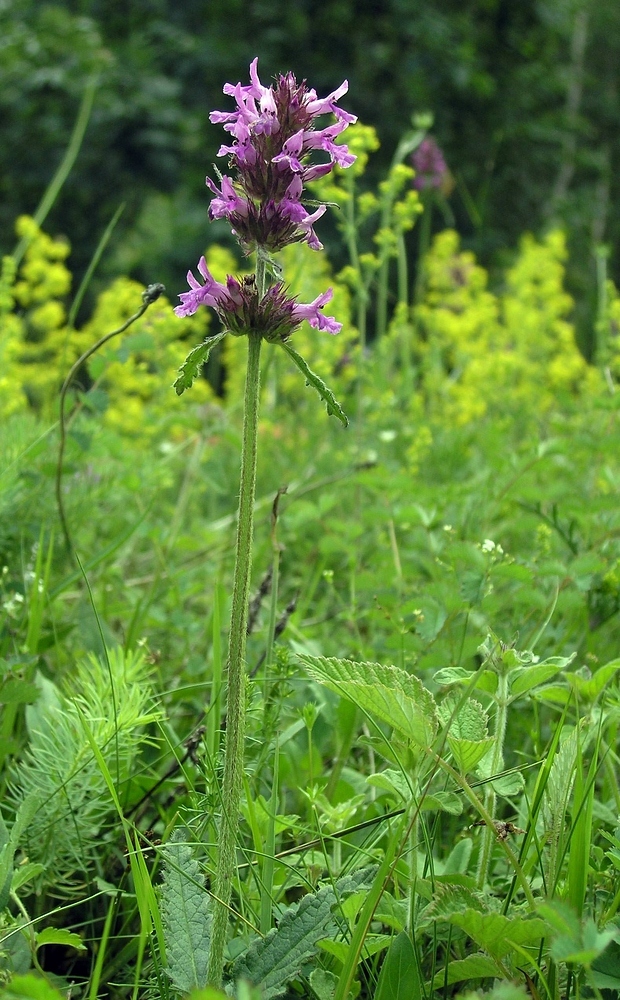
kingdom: Plantae
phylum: Tracheophyta
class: Magnoliopsida
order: Lamiales
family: Lamiaceae
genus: Betonica
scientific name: Betonica officinalis
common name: Bishop's-wort
